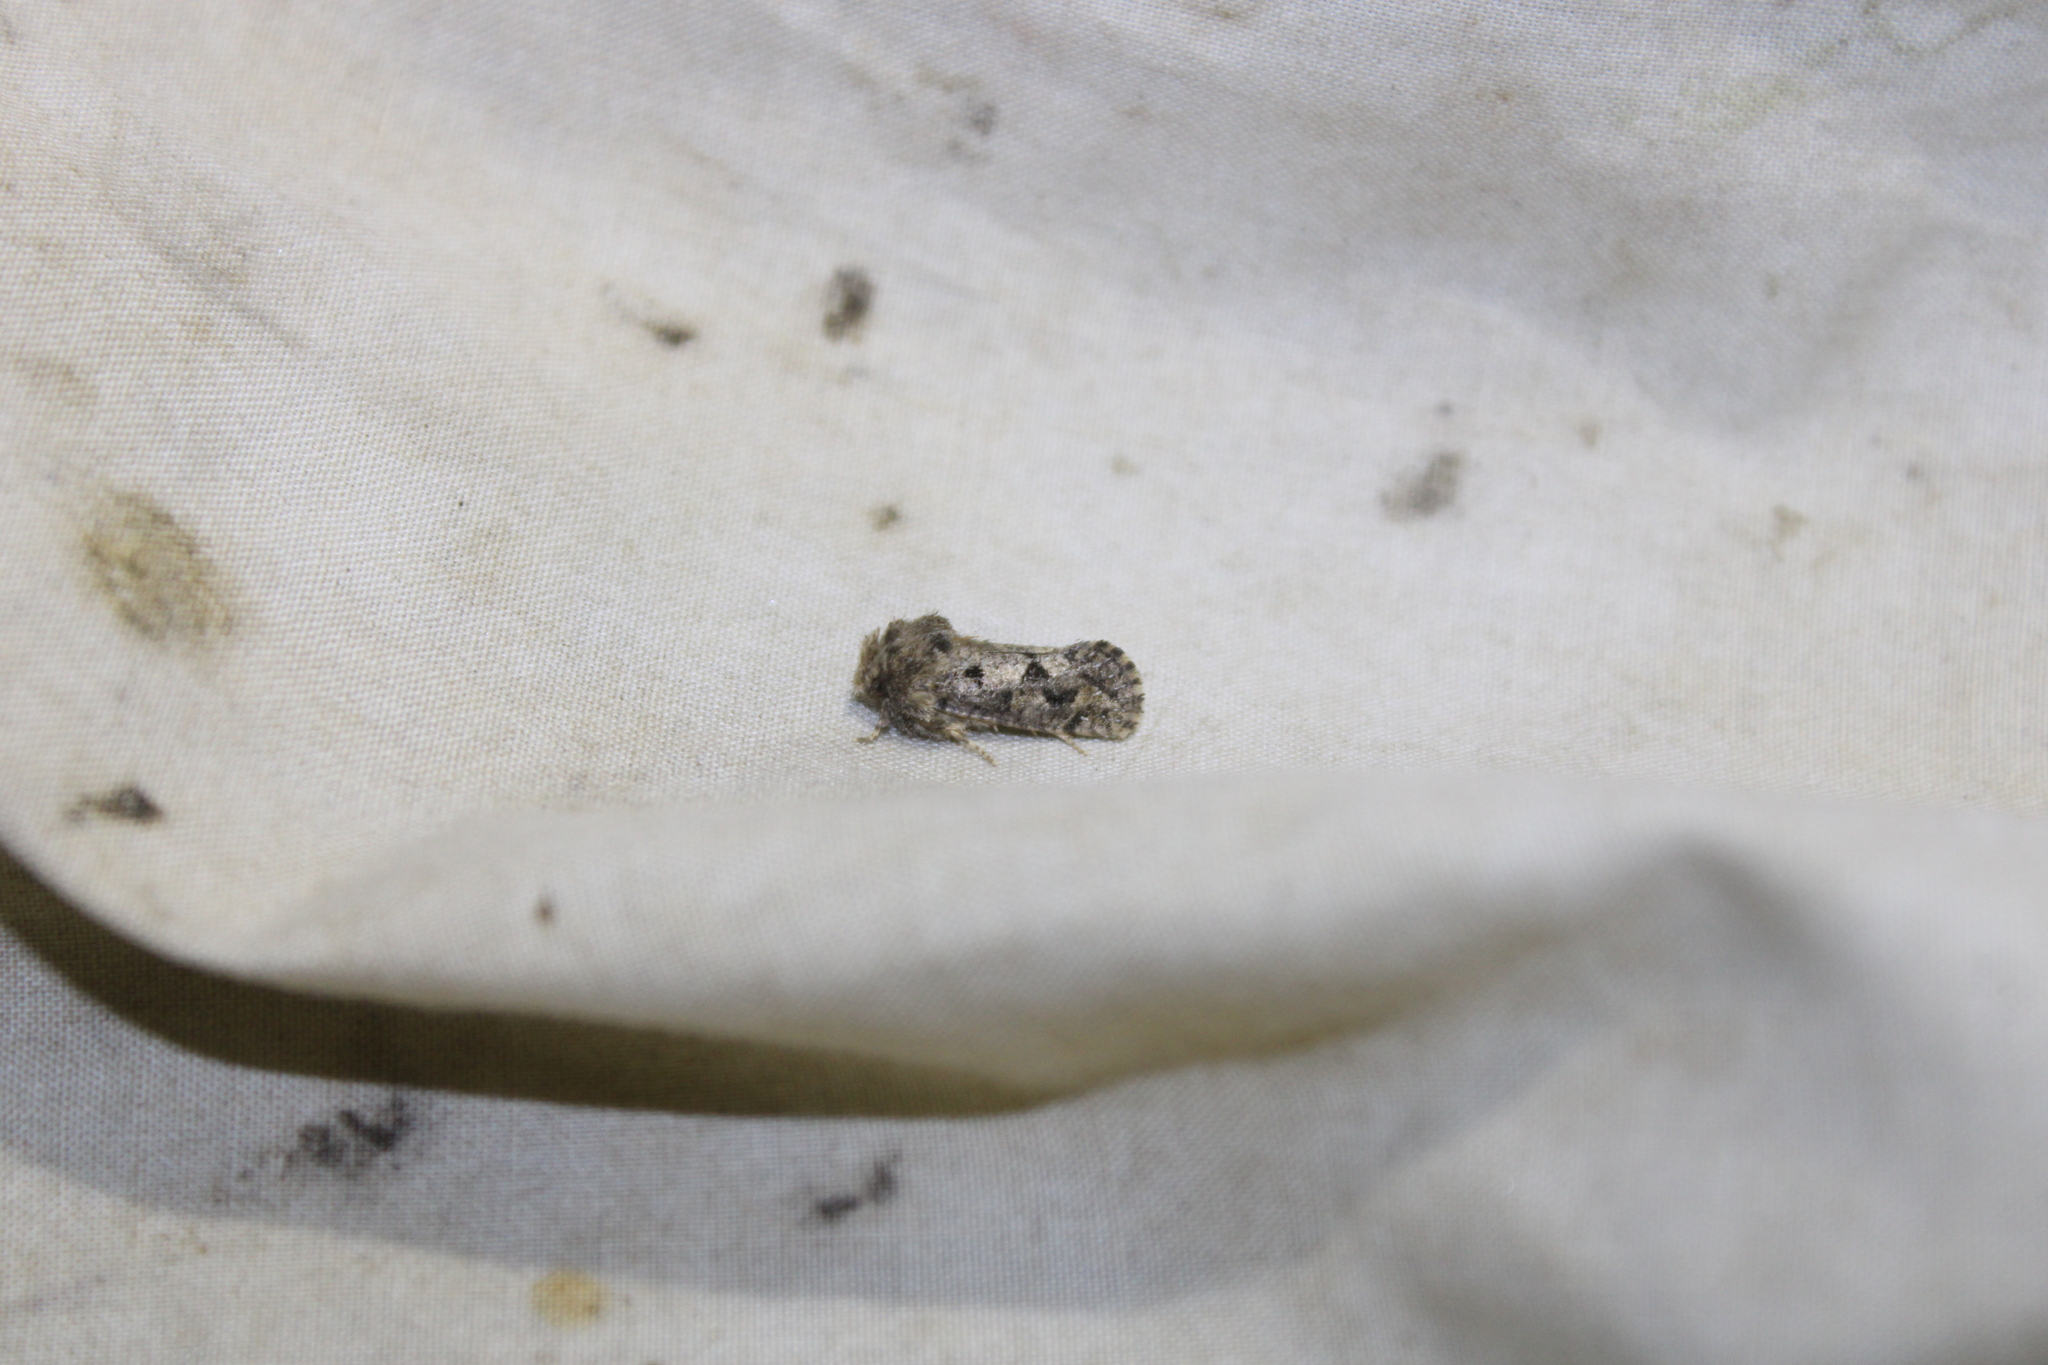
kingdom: Animalia
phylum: Arthropoda
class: Insecta
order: Lepidoptera
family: Tineidae
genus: Acrolophus
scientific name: Acrolophus arcanella
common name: Arcane grass tubeworm moth
